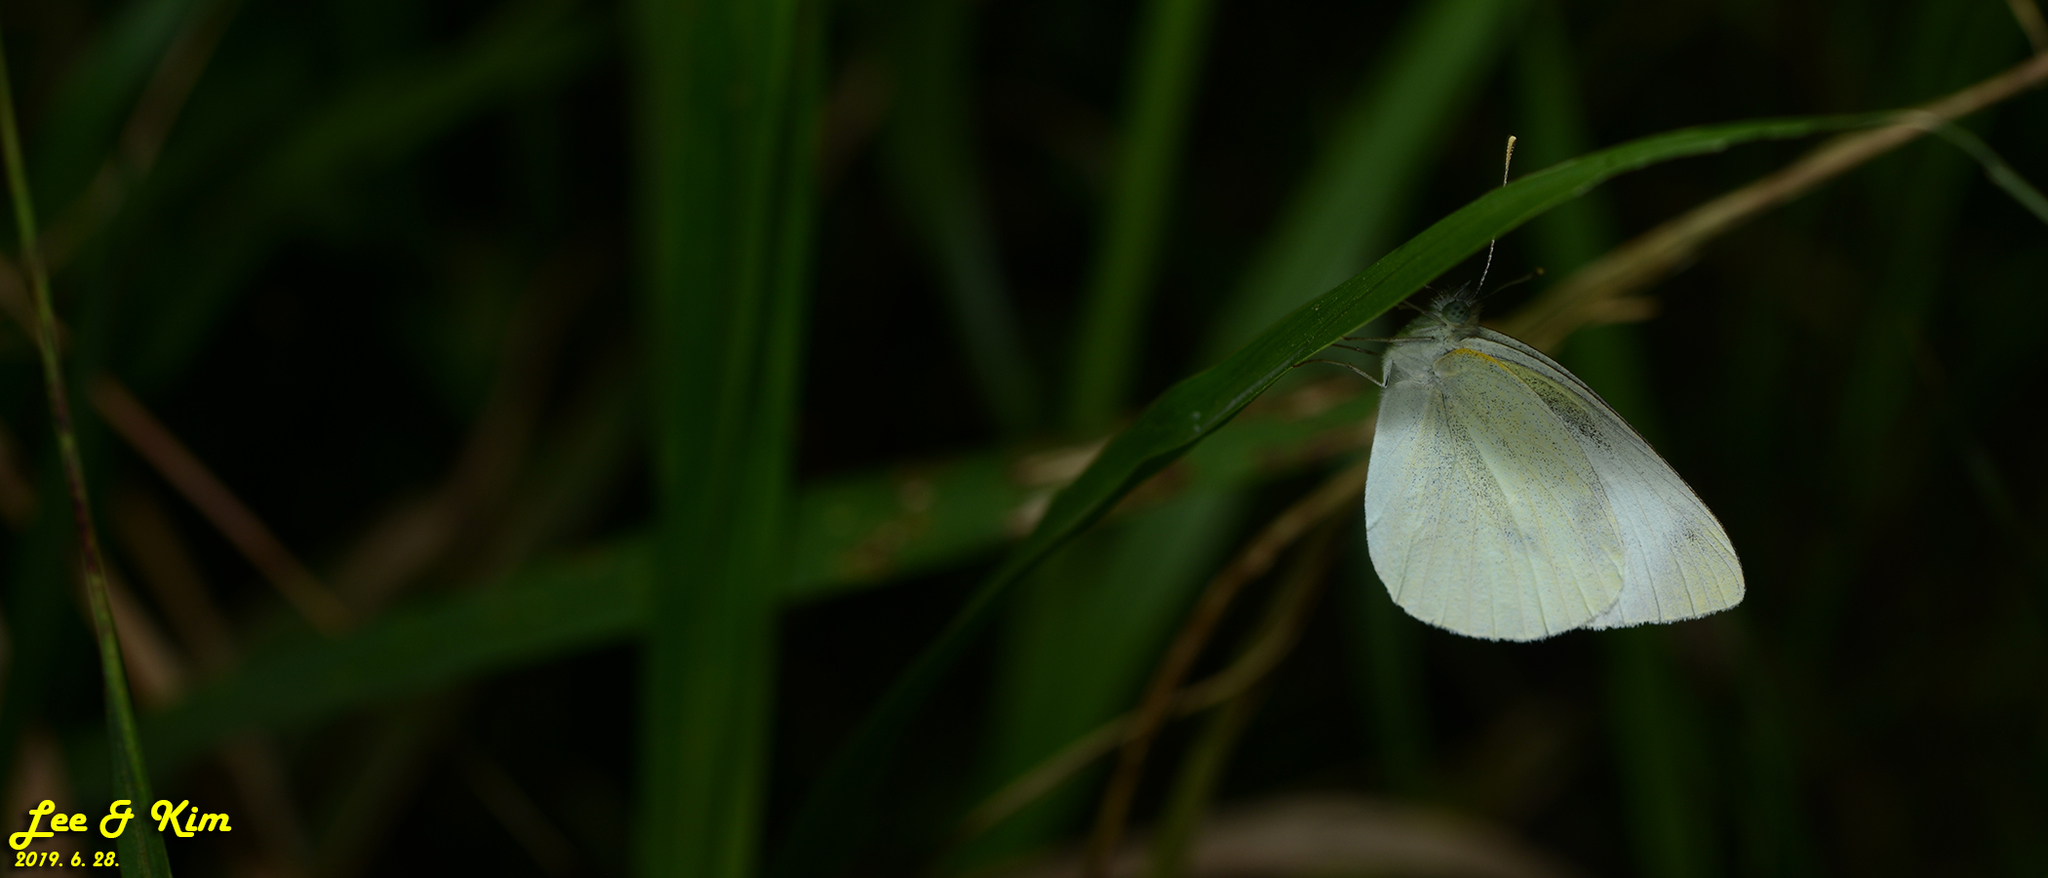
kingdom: Animalia
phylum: Arthropoda
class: Insecta
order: Lepidoptera
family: Pieridae
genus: Pieris
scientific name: Pieris rapae
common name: Small white
